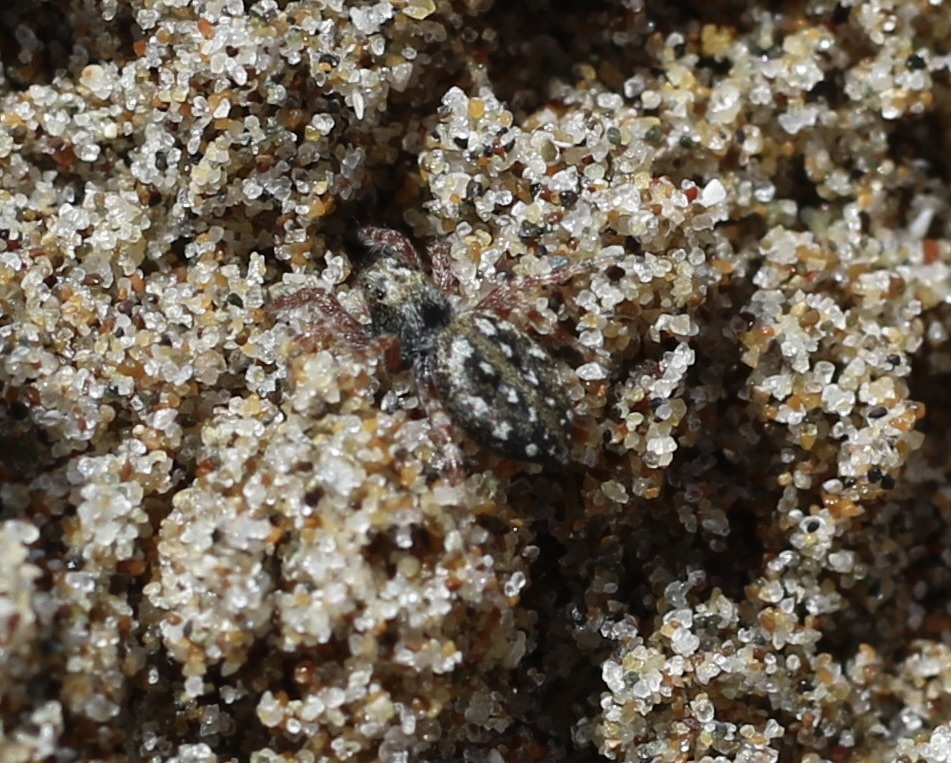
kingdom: Animalia
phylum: Arthropoda
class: Arachnida
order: Araneae
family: Salticidae
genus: Terralonus
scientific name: Terralonus californicus
